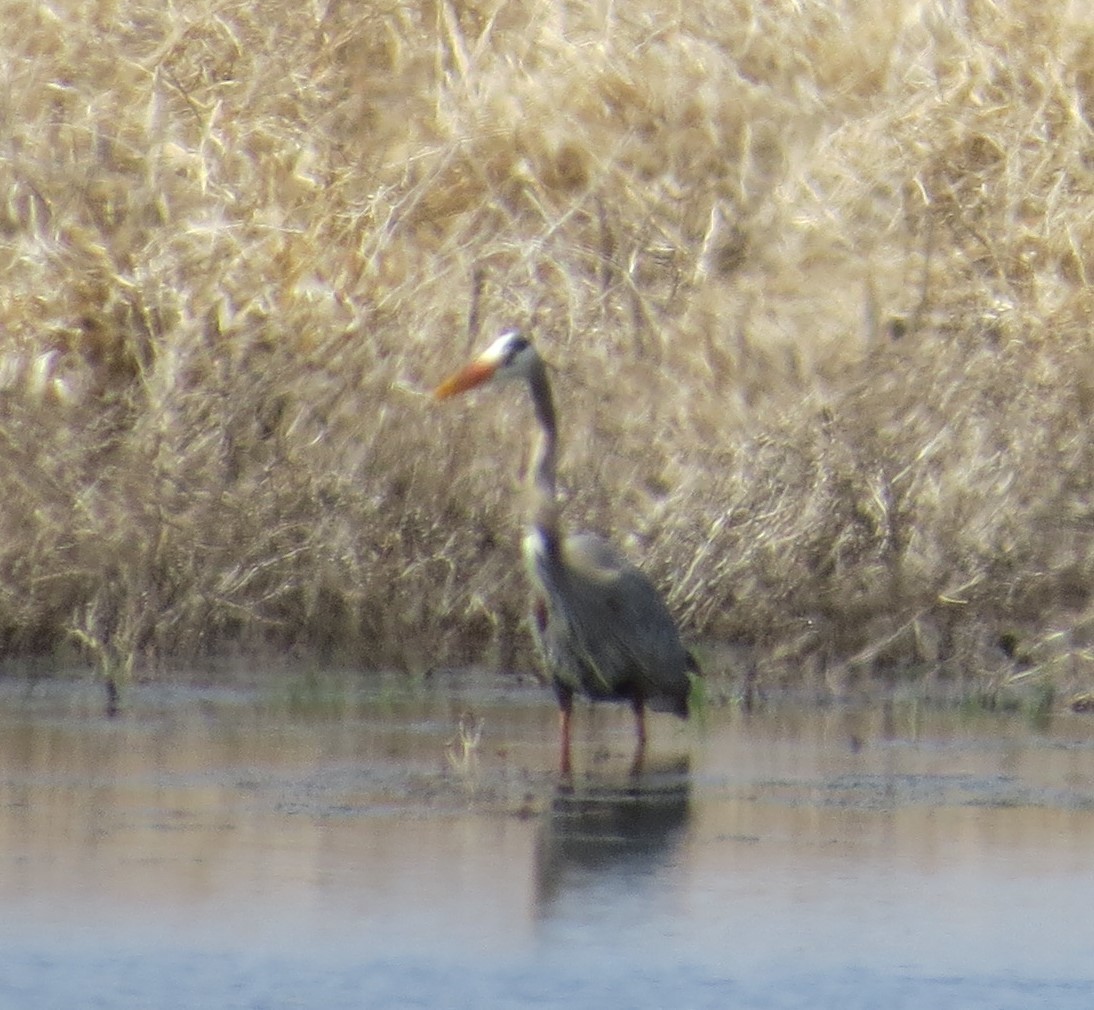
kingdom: Animalia
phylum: Chordata
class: Aves
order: Pelecaniformes
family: Ardeidae
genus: Ardea
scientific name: Ardea herodias
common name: Great blue heron
